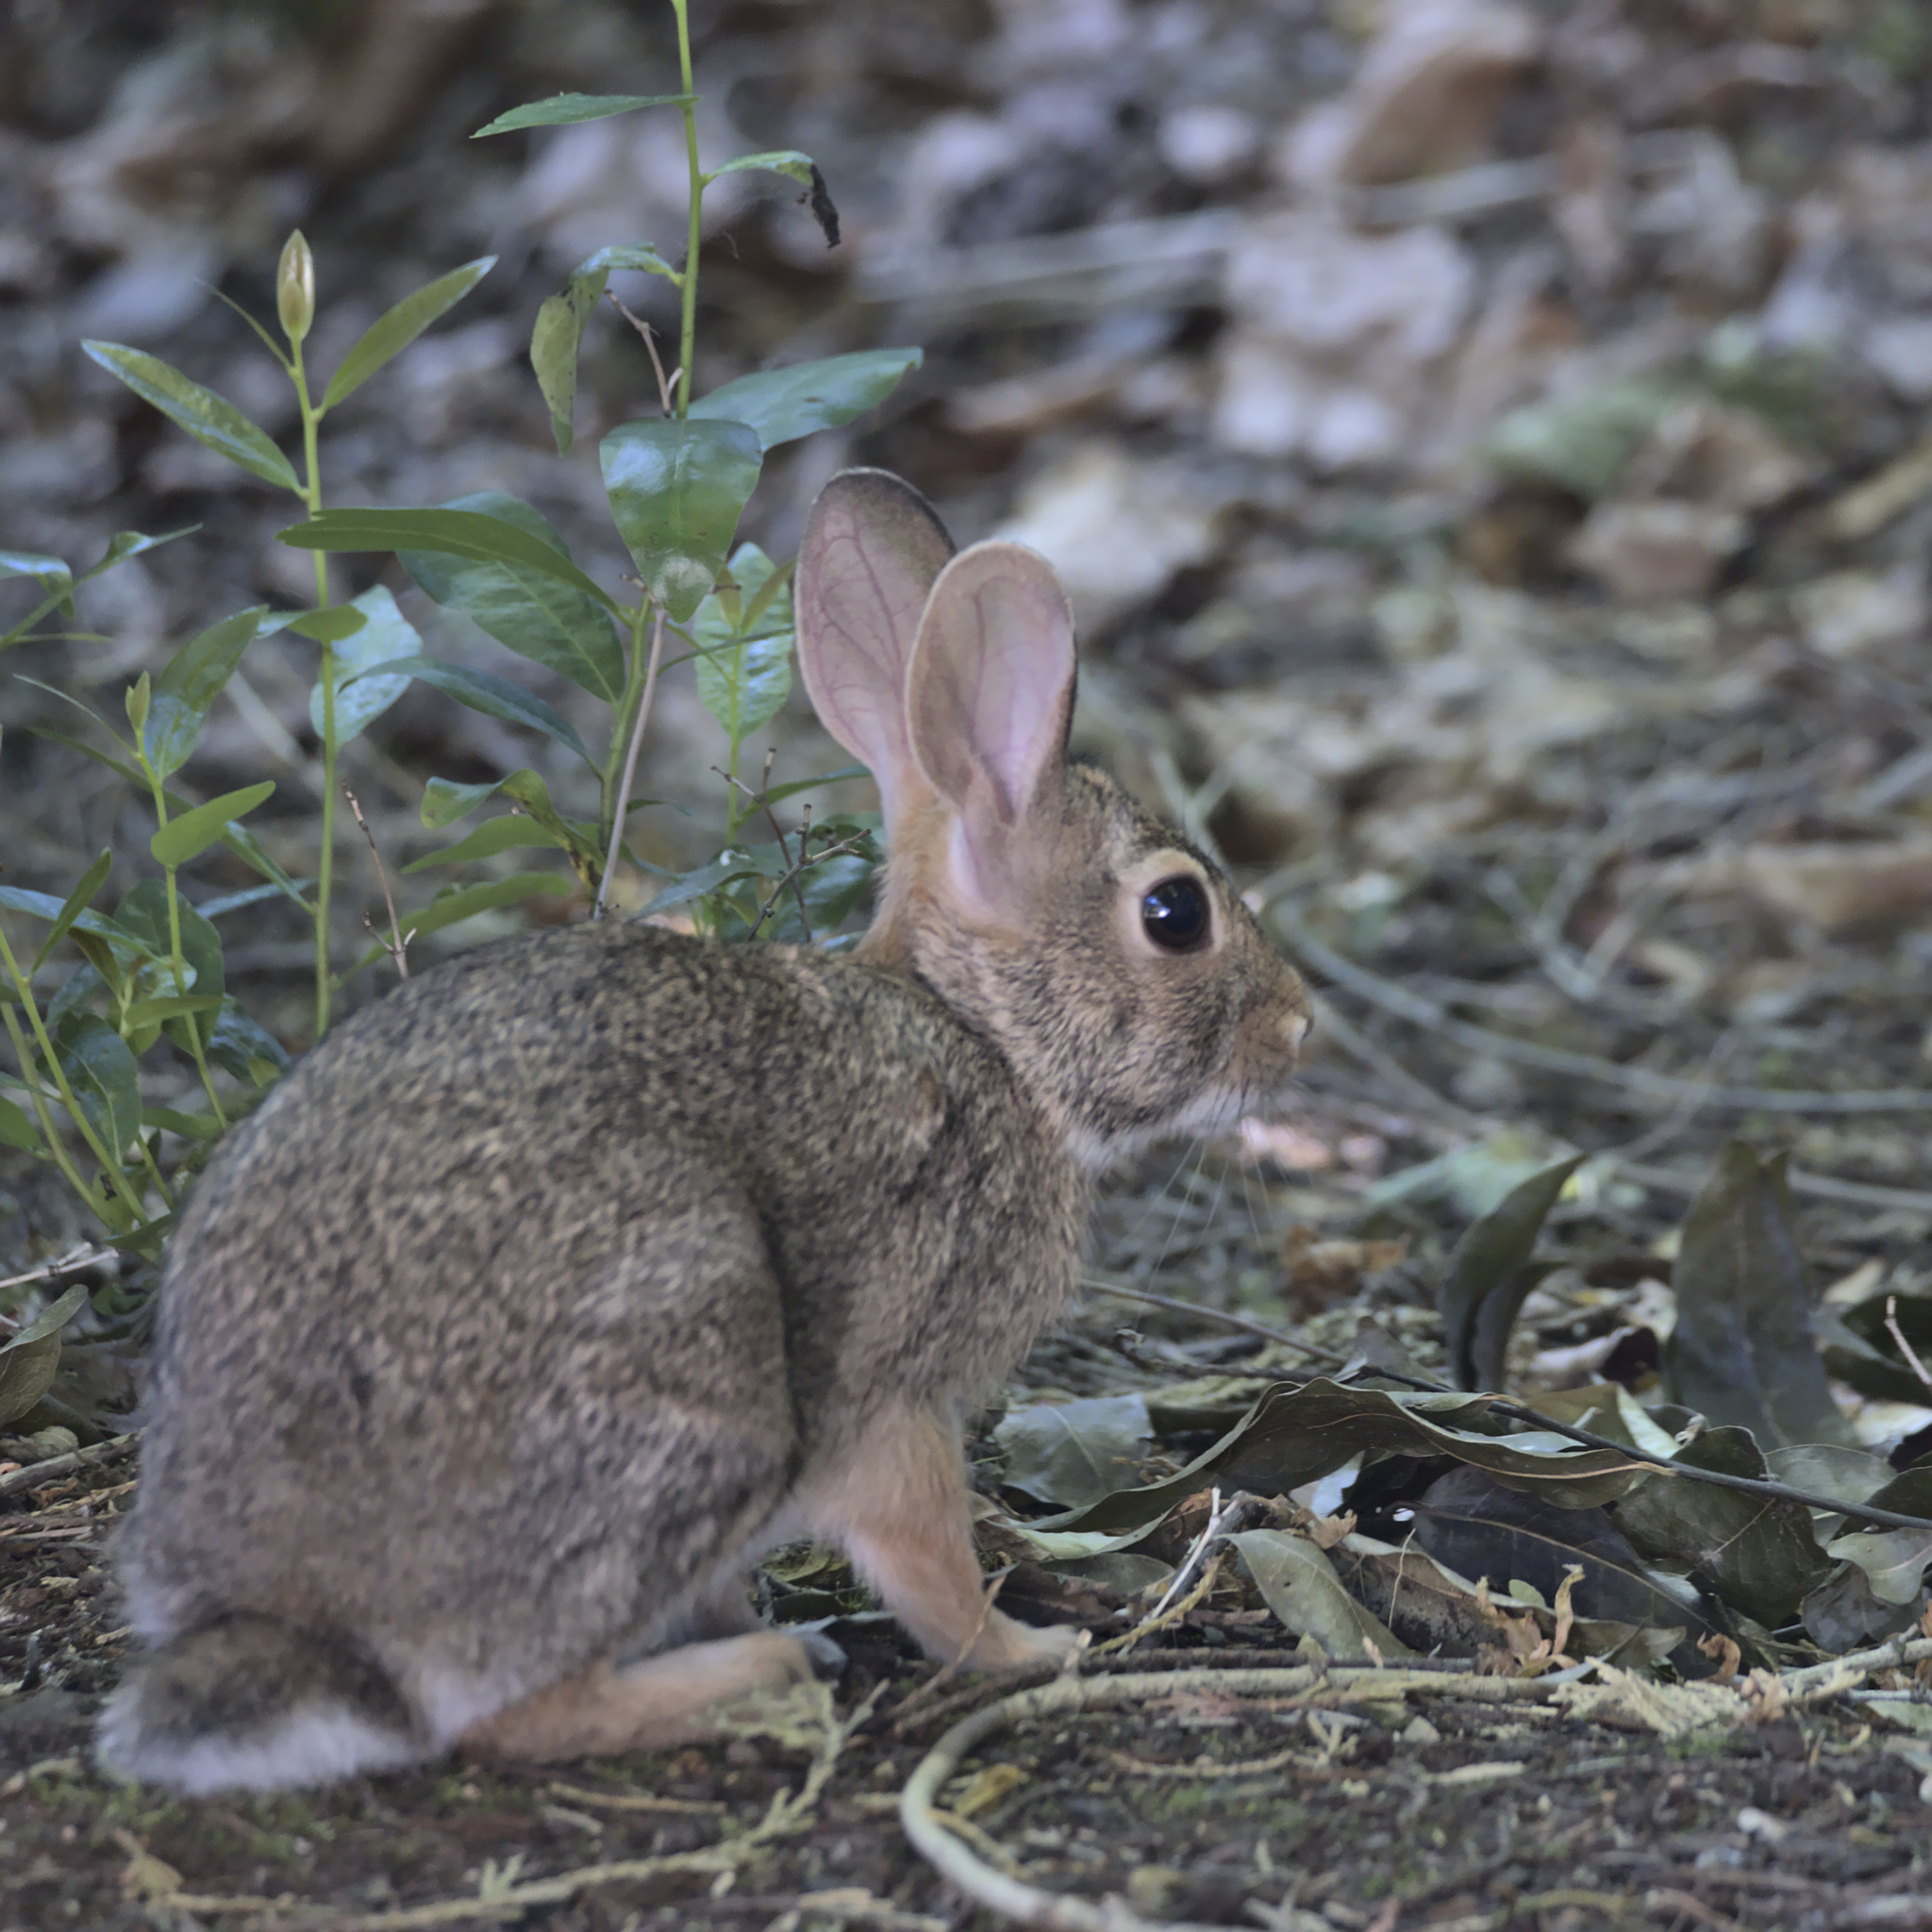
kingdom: Animalia
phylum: Chordata
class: Mammalia
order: Lagomorpha
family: Leporidae
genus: Sylvilagus
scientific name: Sylvilagus floridanus
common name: Eastern cottontail
